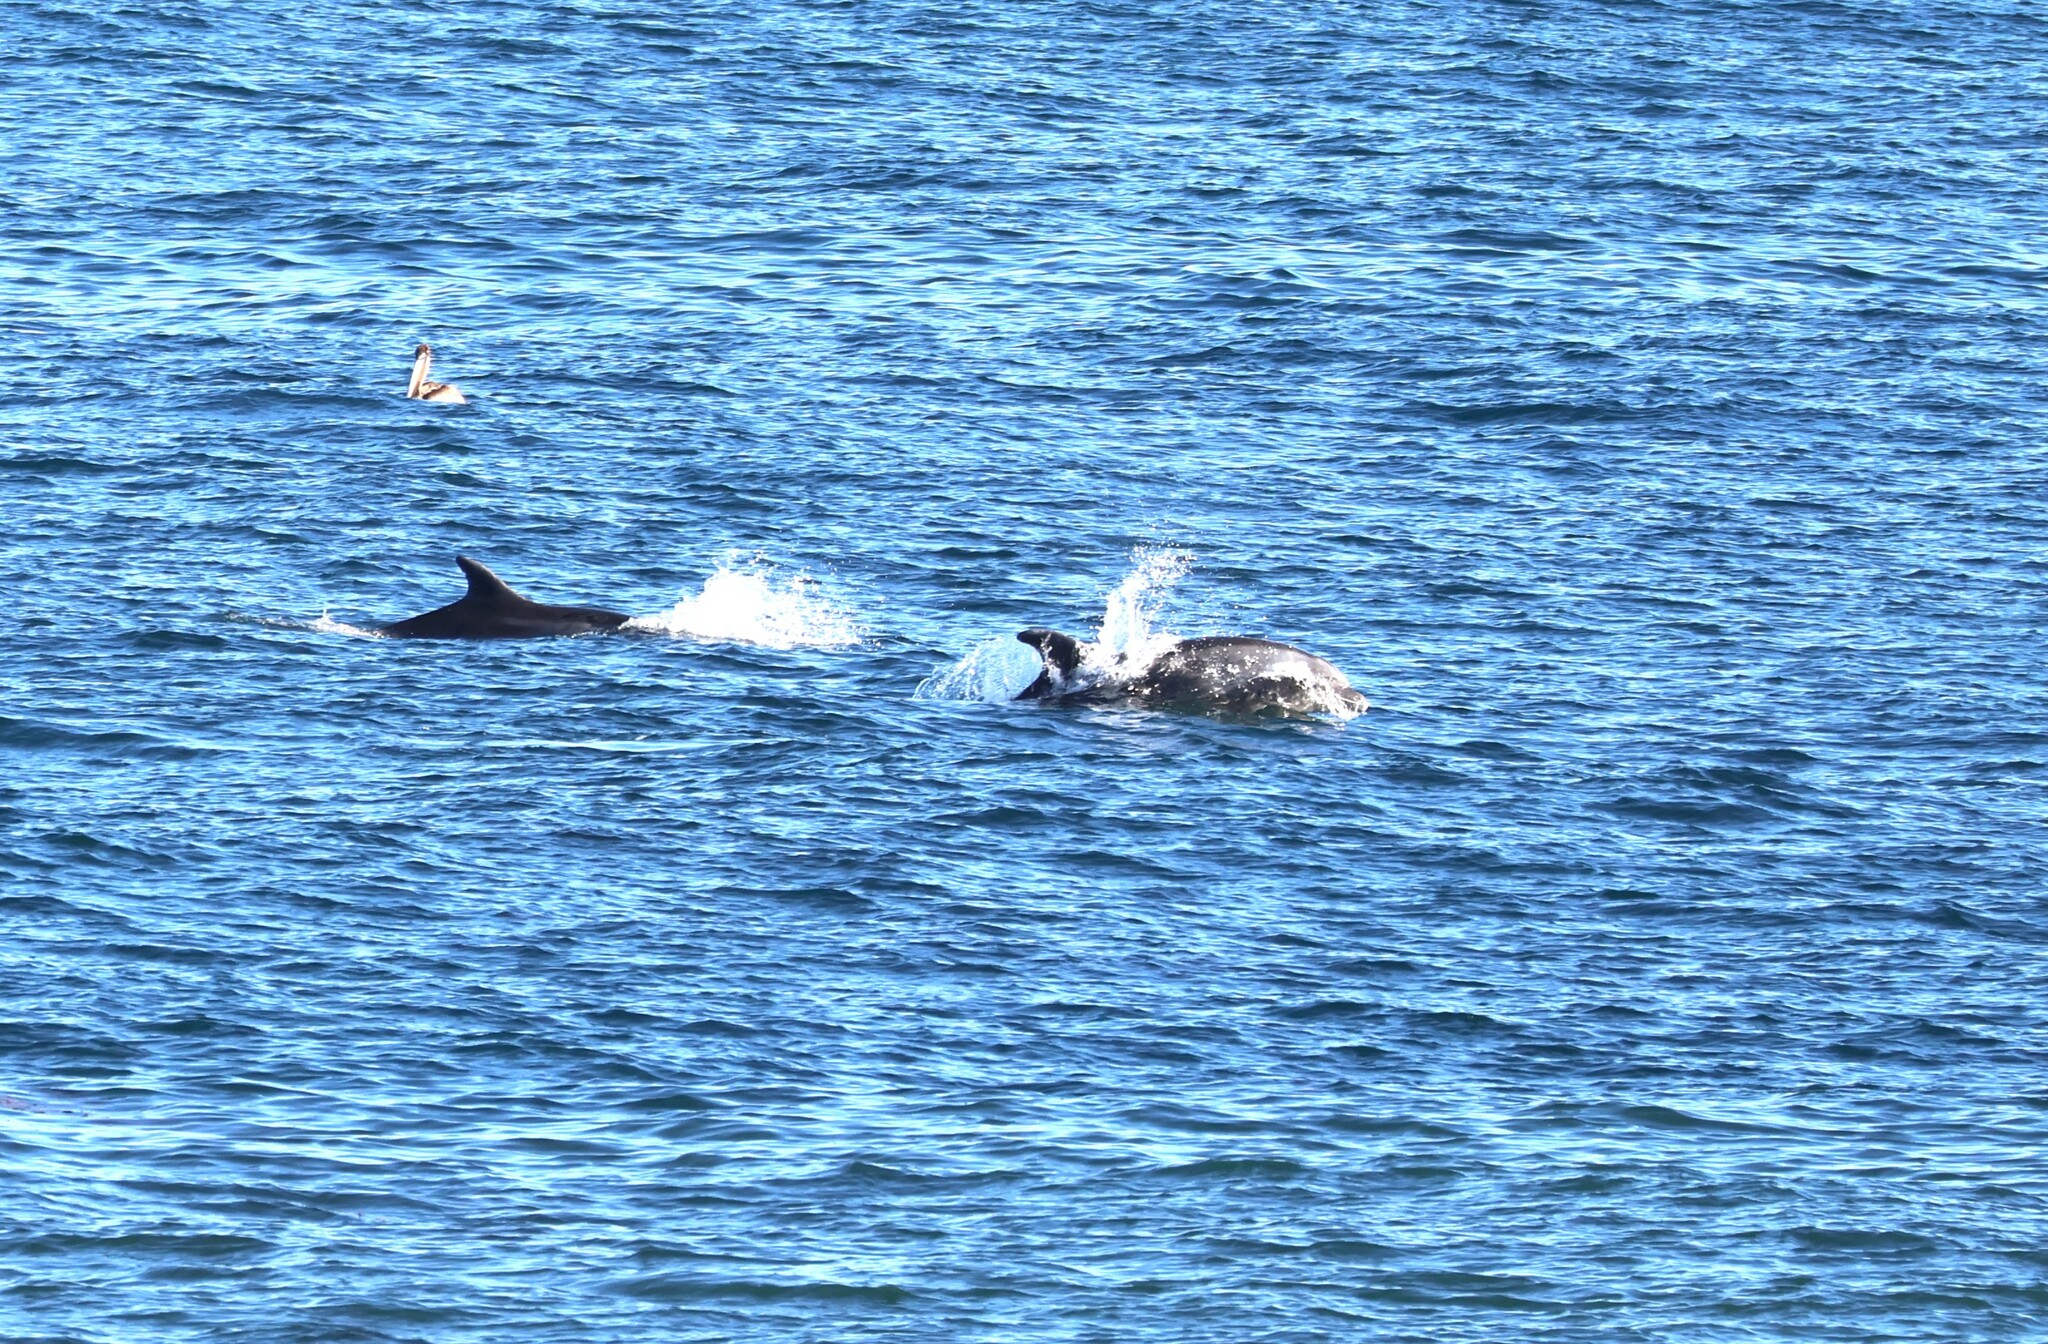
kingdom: Animalia
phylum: Chordata
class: Mammalia
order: Cetacea
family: Delphinidae
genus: Tursiops
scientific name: Tursiops truncatus
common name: Bottlenose dolphin
